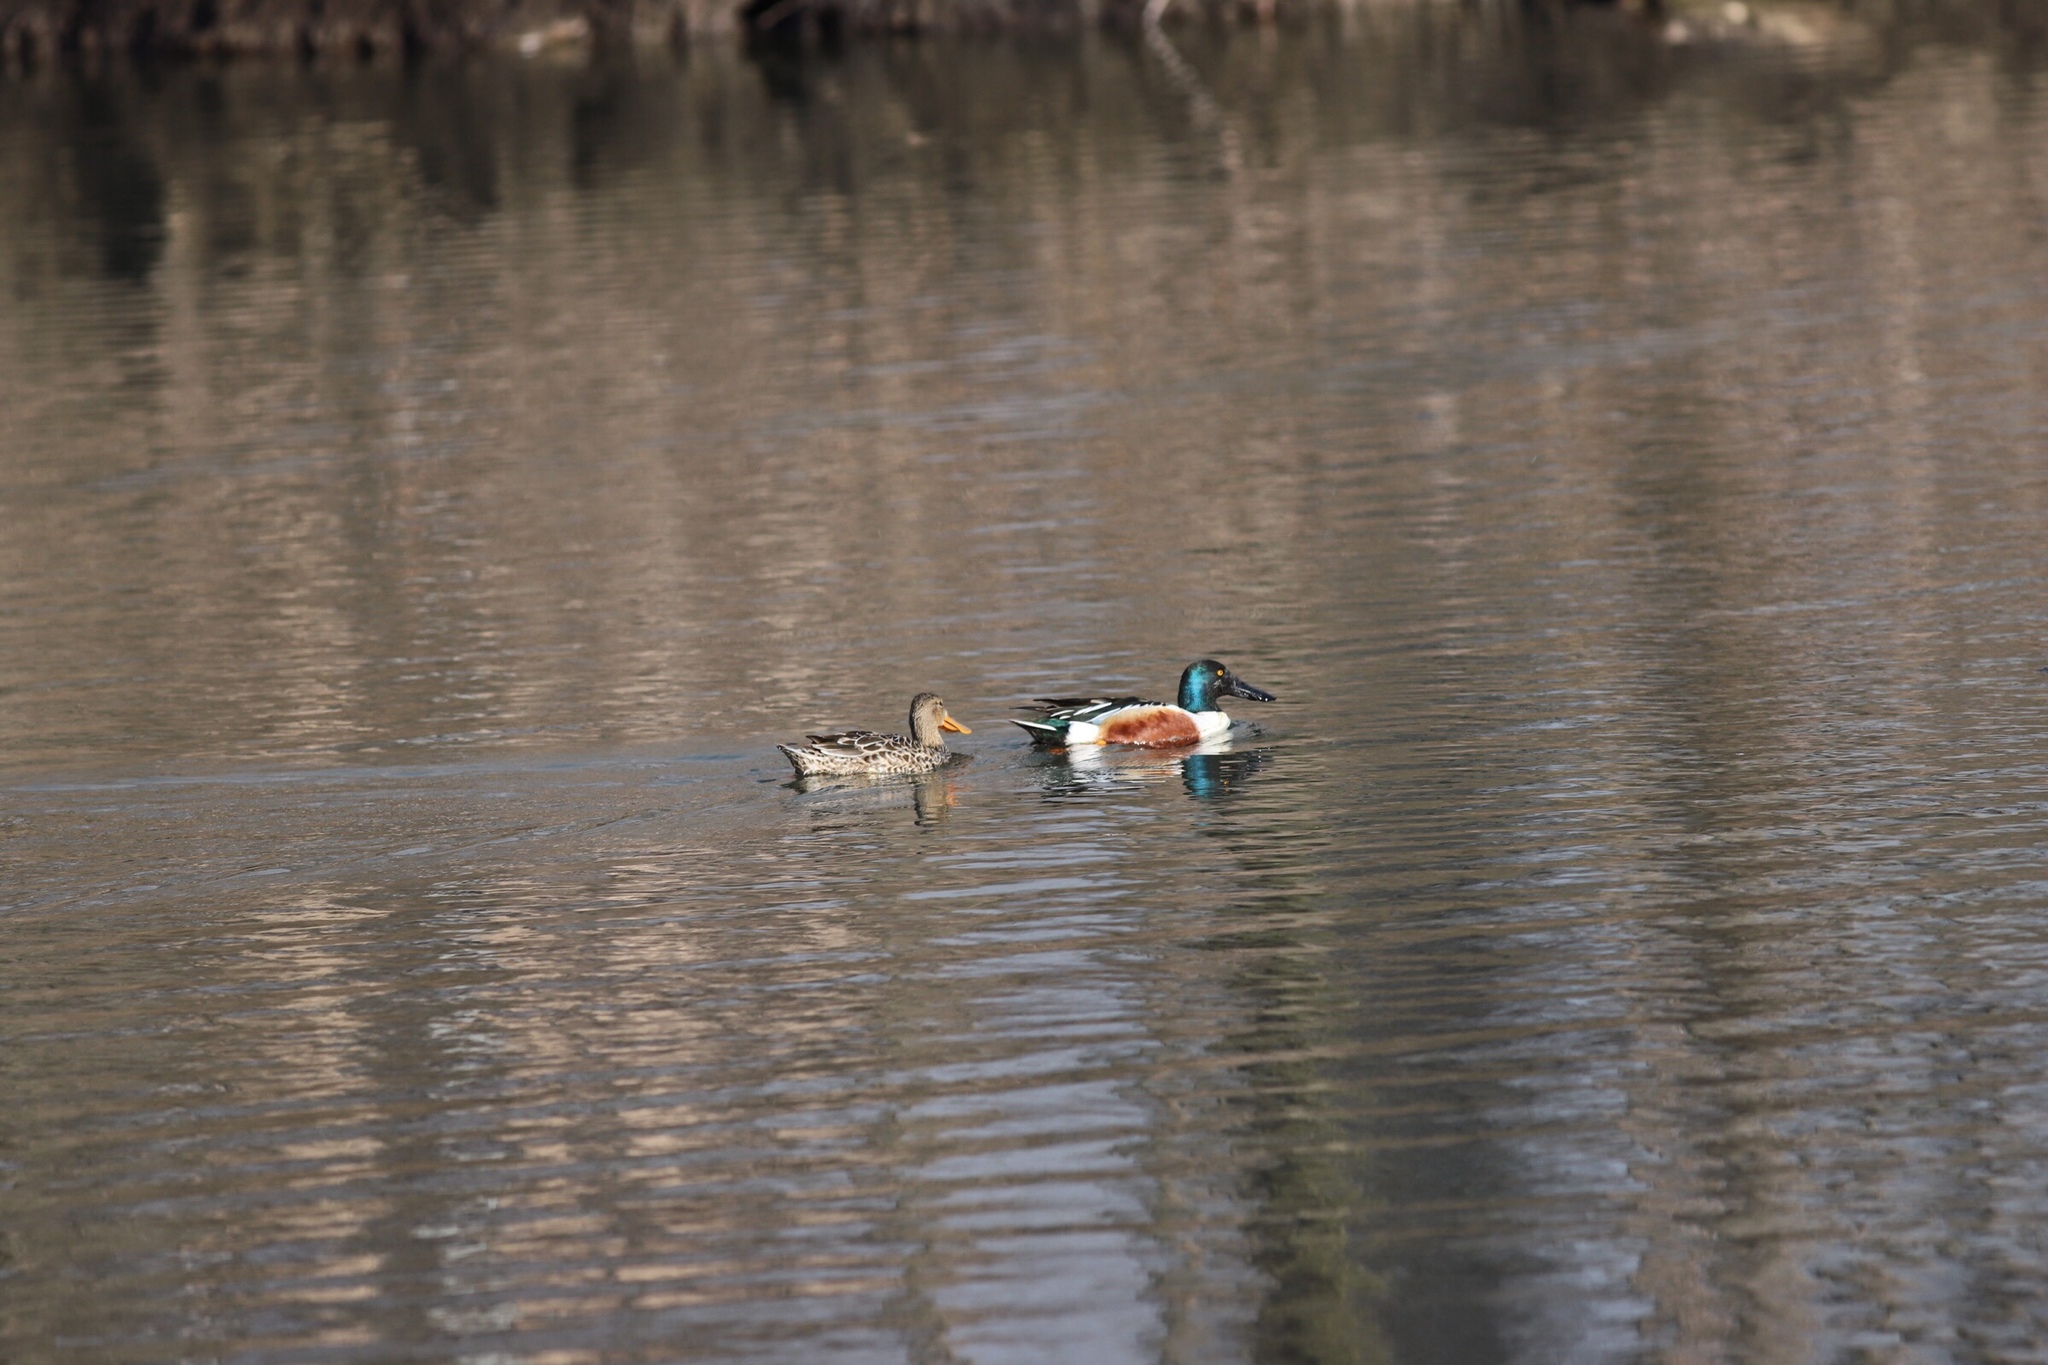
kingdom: Animalia
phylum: Chordata
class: Aves
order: Anseriformes
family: Anatidae
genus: Spatula
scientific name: Spatula clypeata
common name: Northern shoveler
